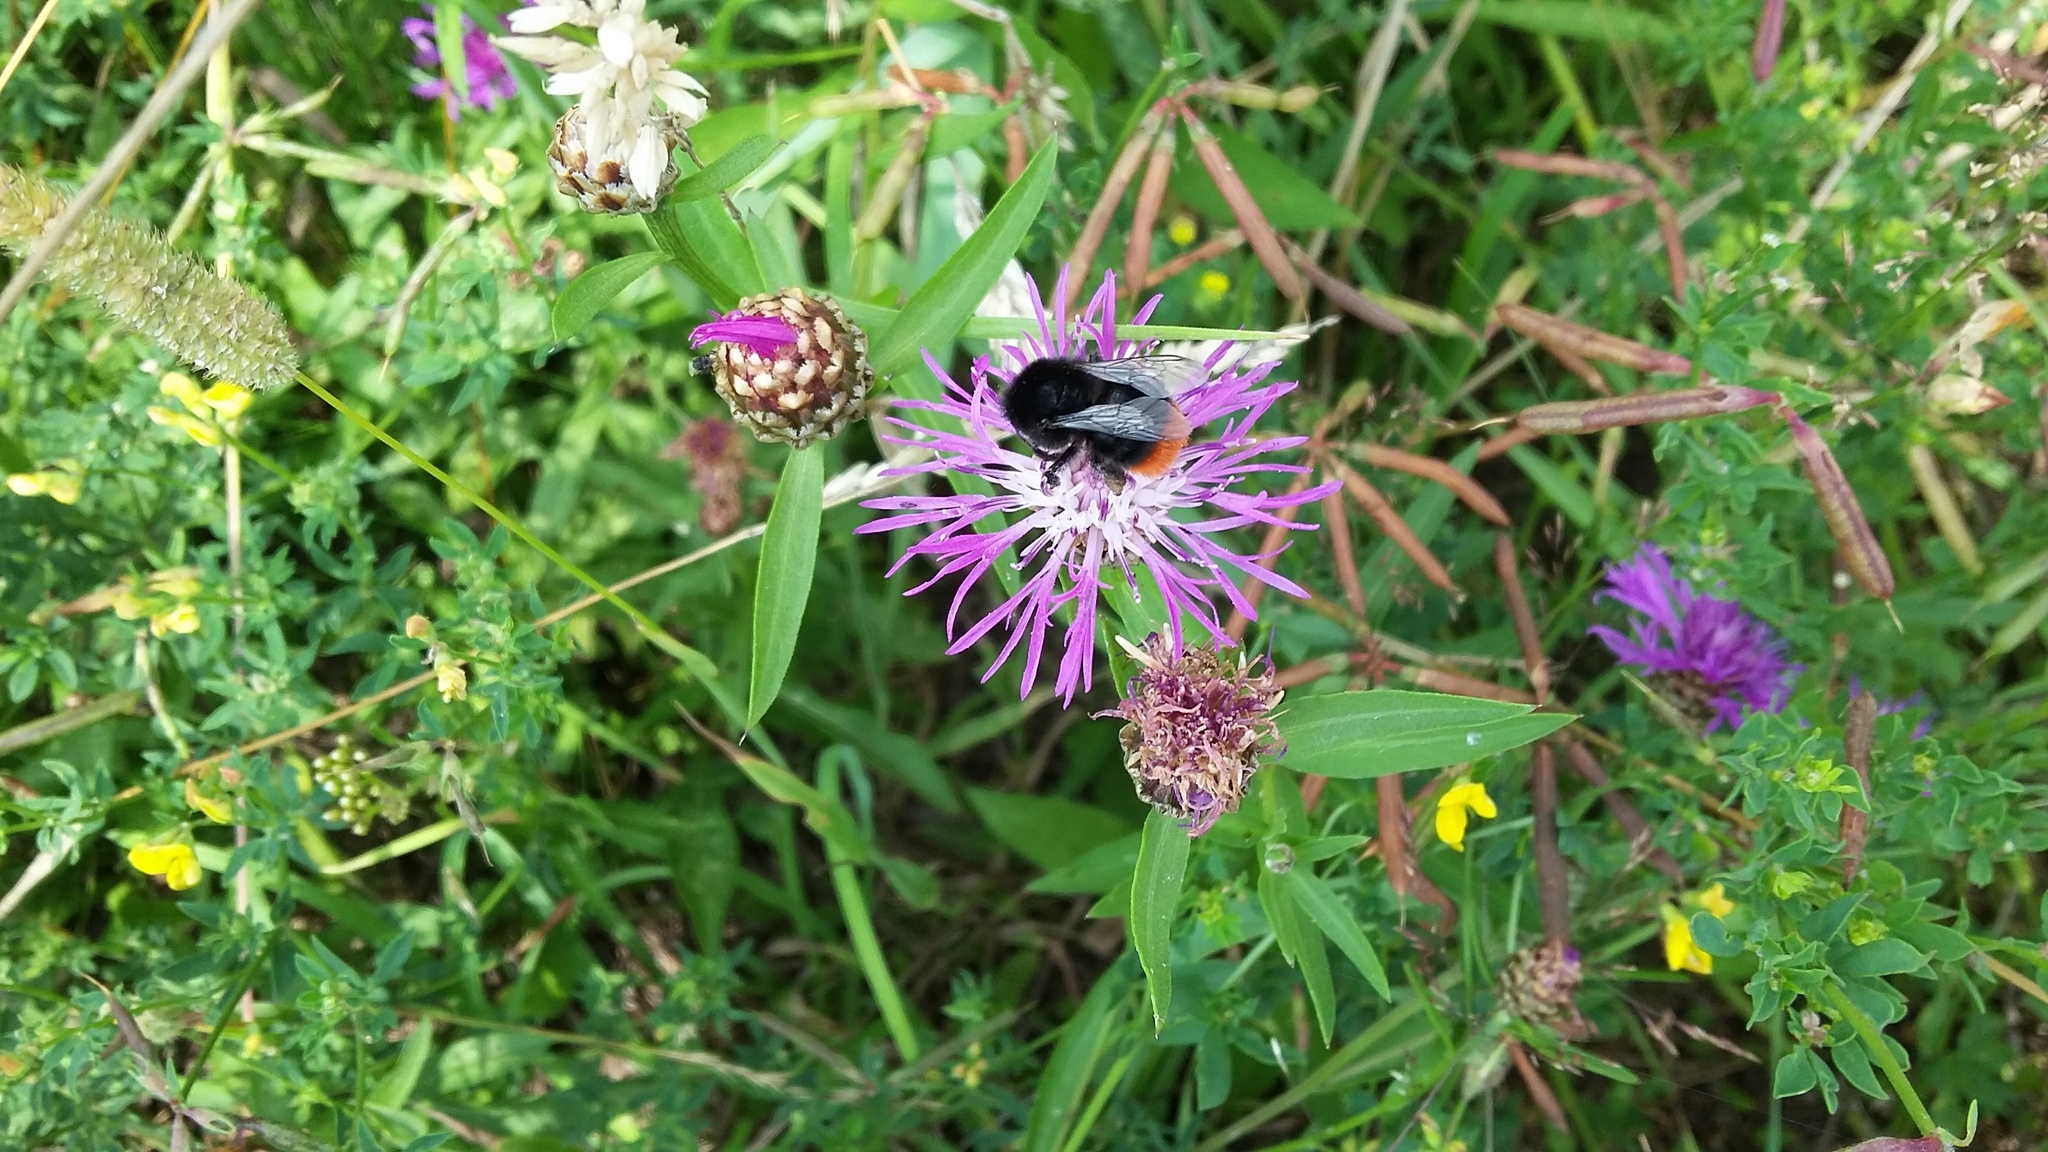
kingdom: Animalia
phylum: Arthropoda
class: Insecta
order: Hymenoptera
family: Apidae
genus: Bombus
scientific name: Bombus lapidarius
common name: Large red-tailed humble-bee
